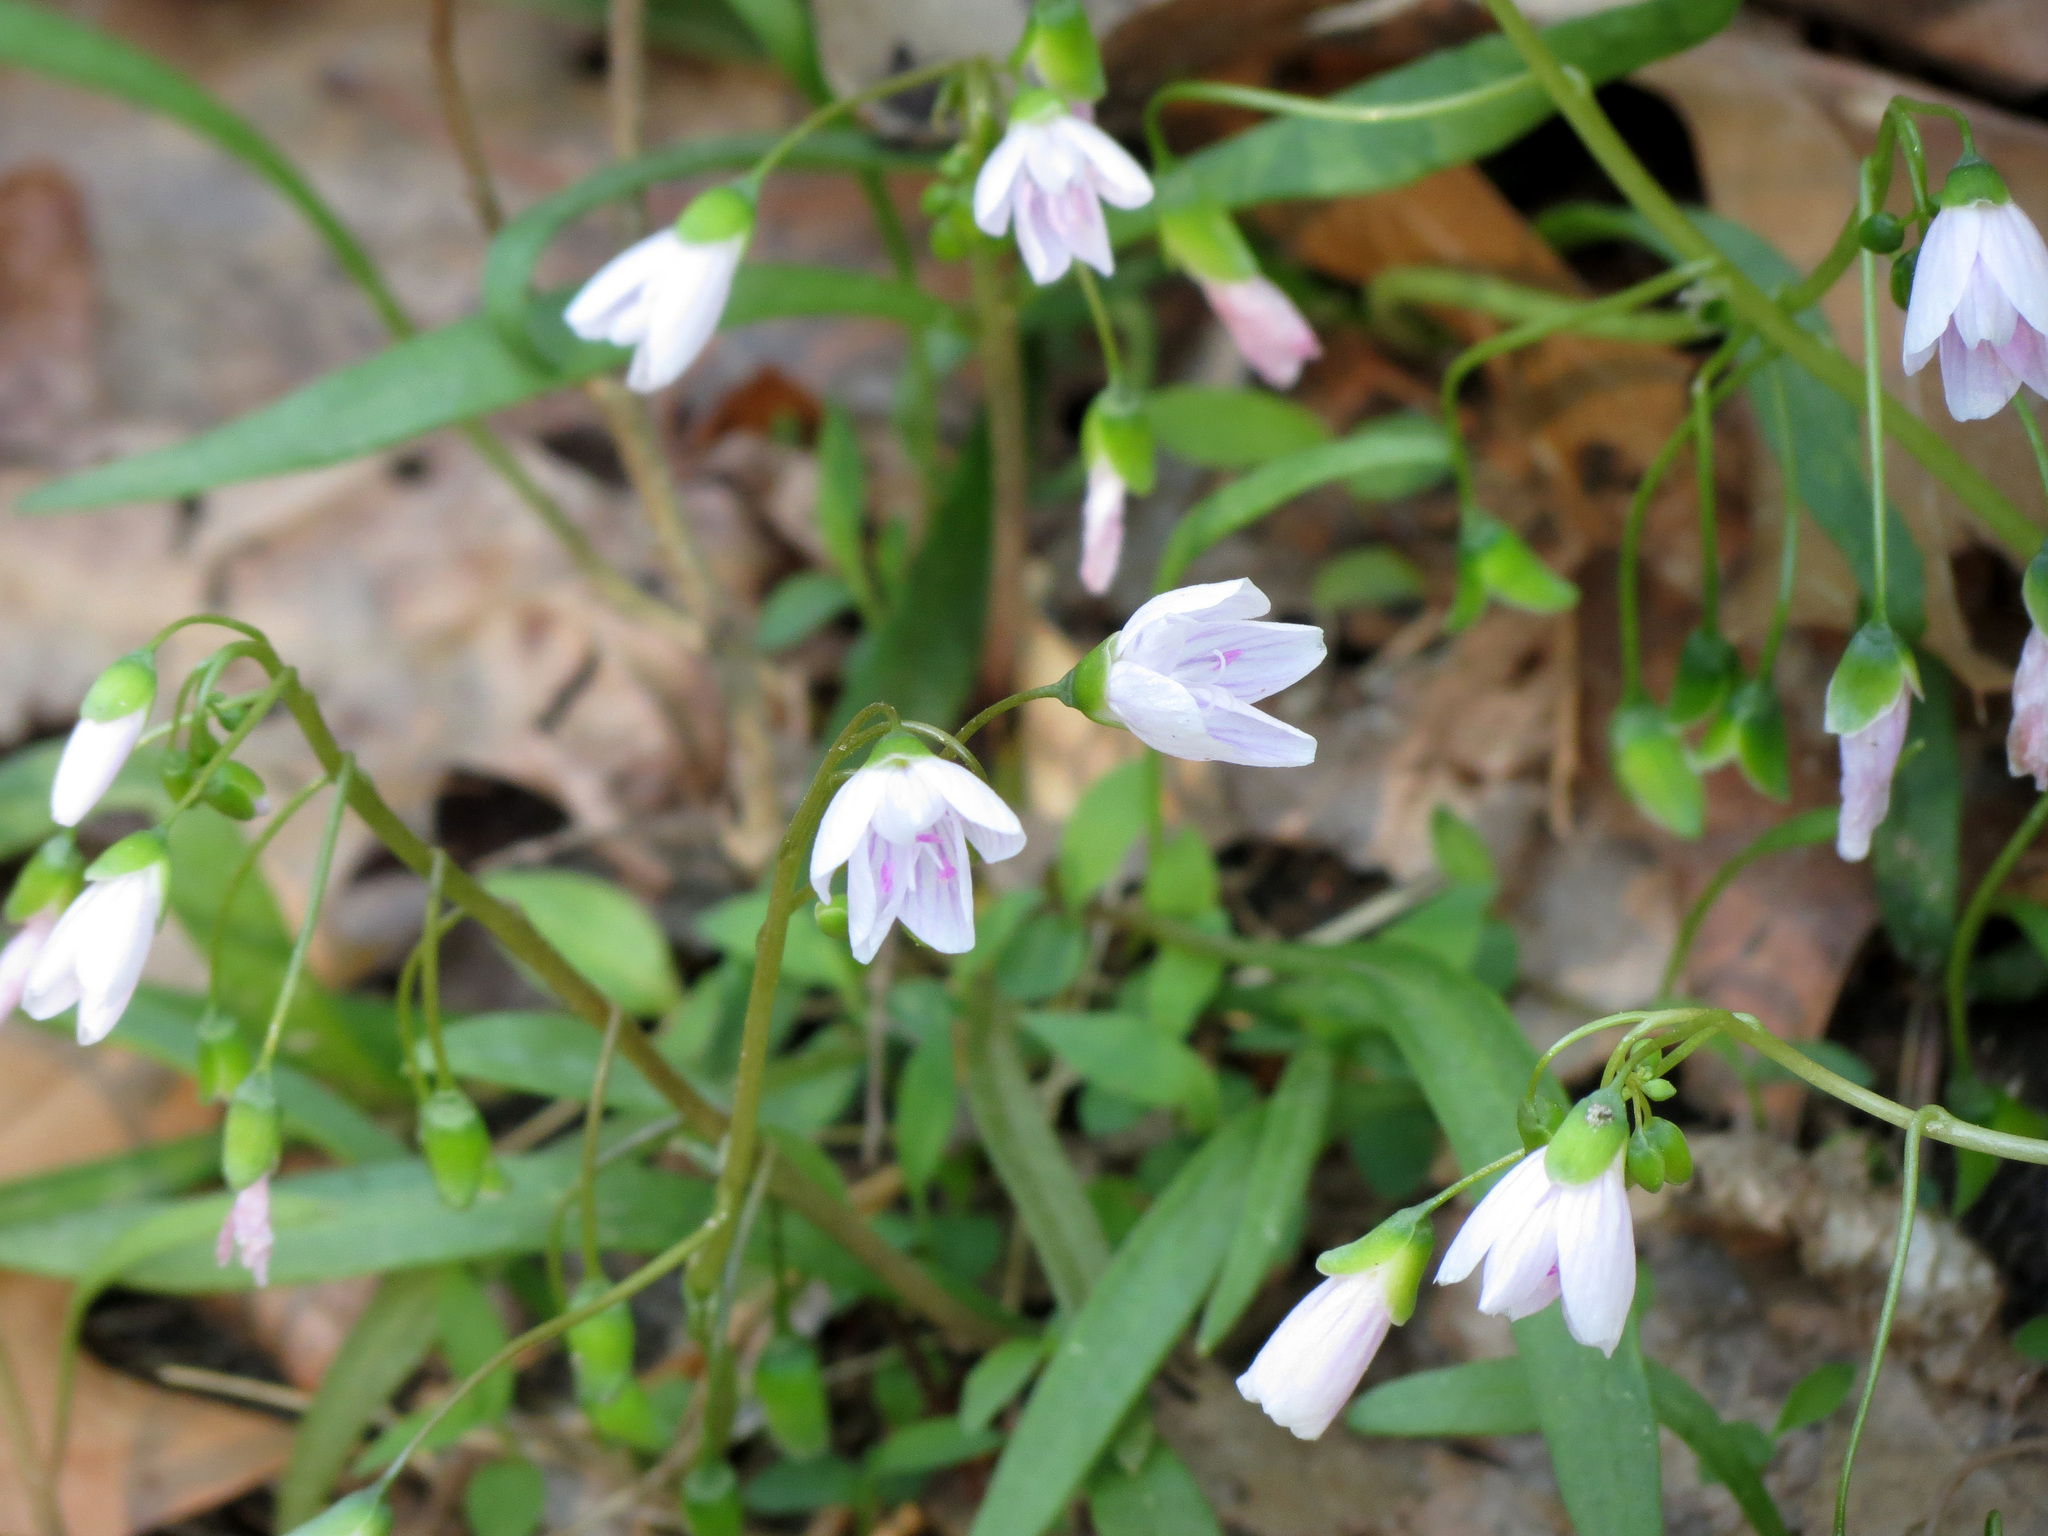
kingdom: Plantae
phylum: Tracheophyta
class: Magnoliopsida
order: Caryophyllales
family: Montiaceae
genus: Claytonia
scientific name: Claytonia virginica
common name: Virginia springbeauty
